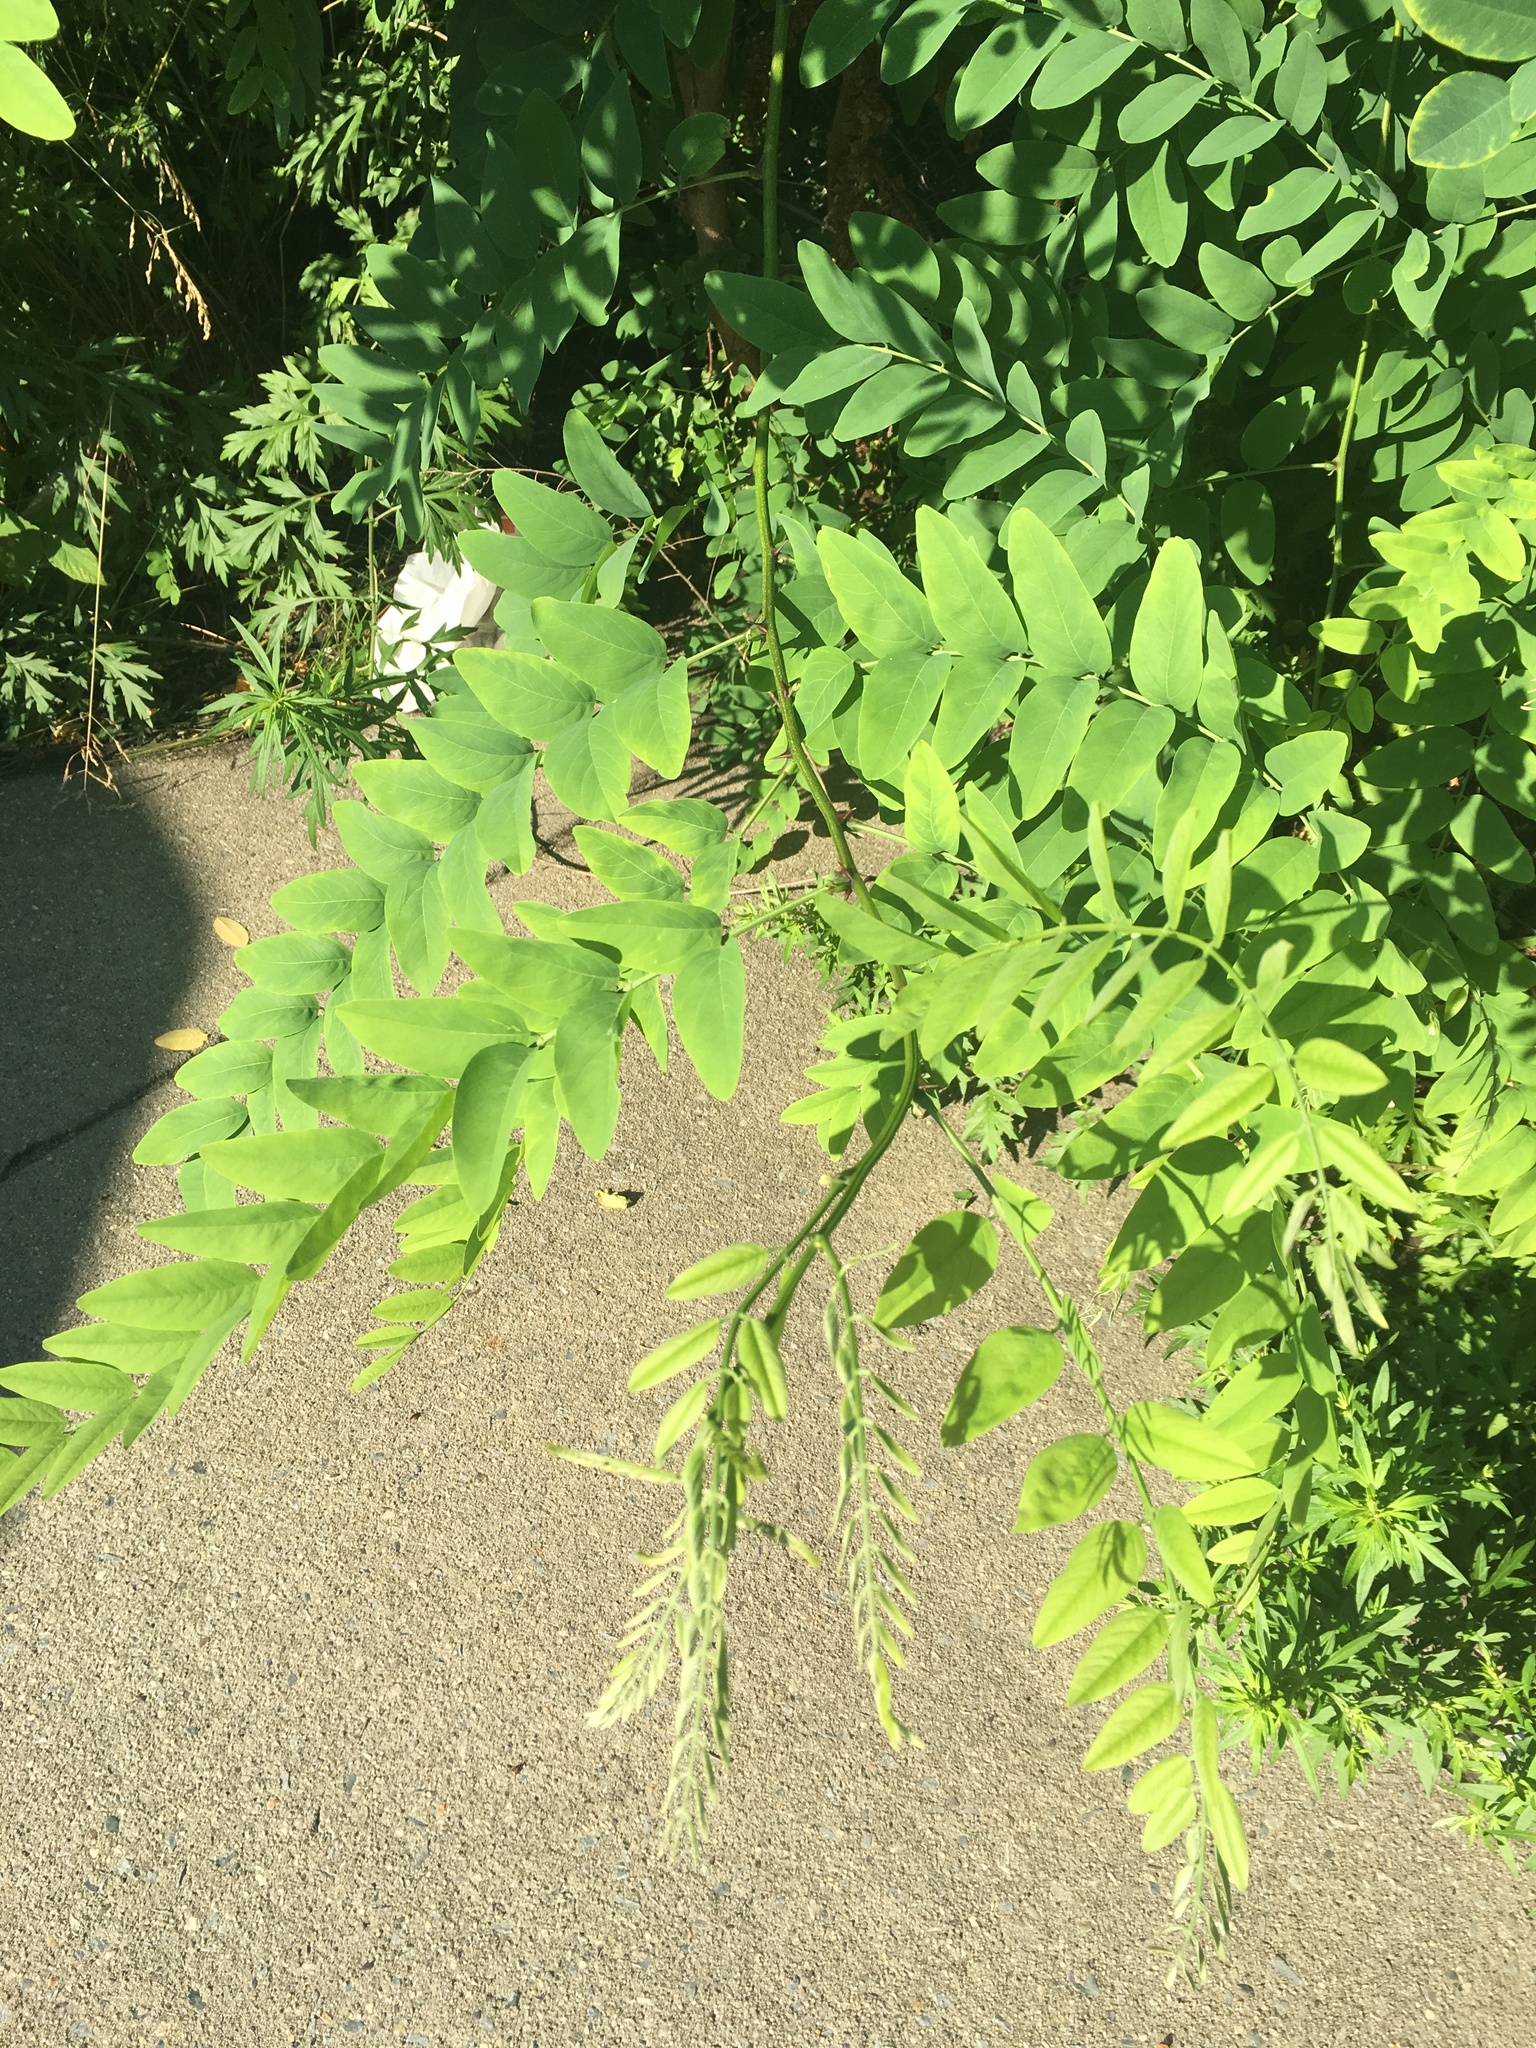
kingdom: Plantae
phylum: Tracheophyta
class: Magnoliopsida
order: Fabales
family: Fabaceae
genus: Robinia
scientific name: Robinia pseudoacacia
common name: Black locust
